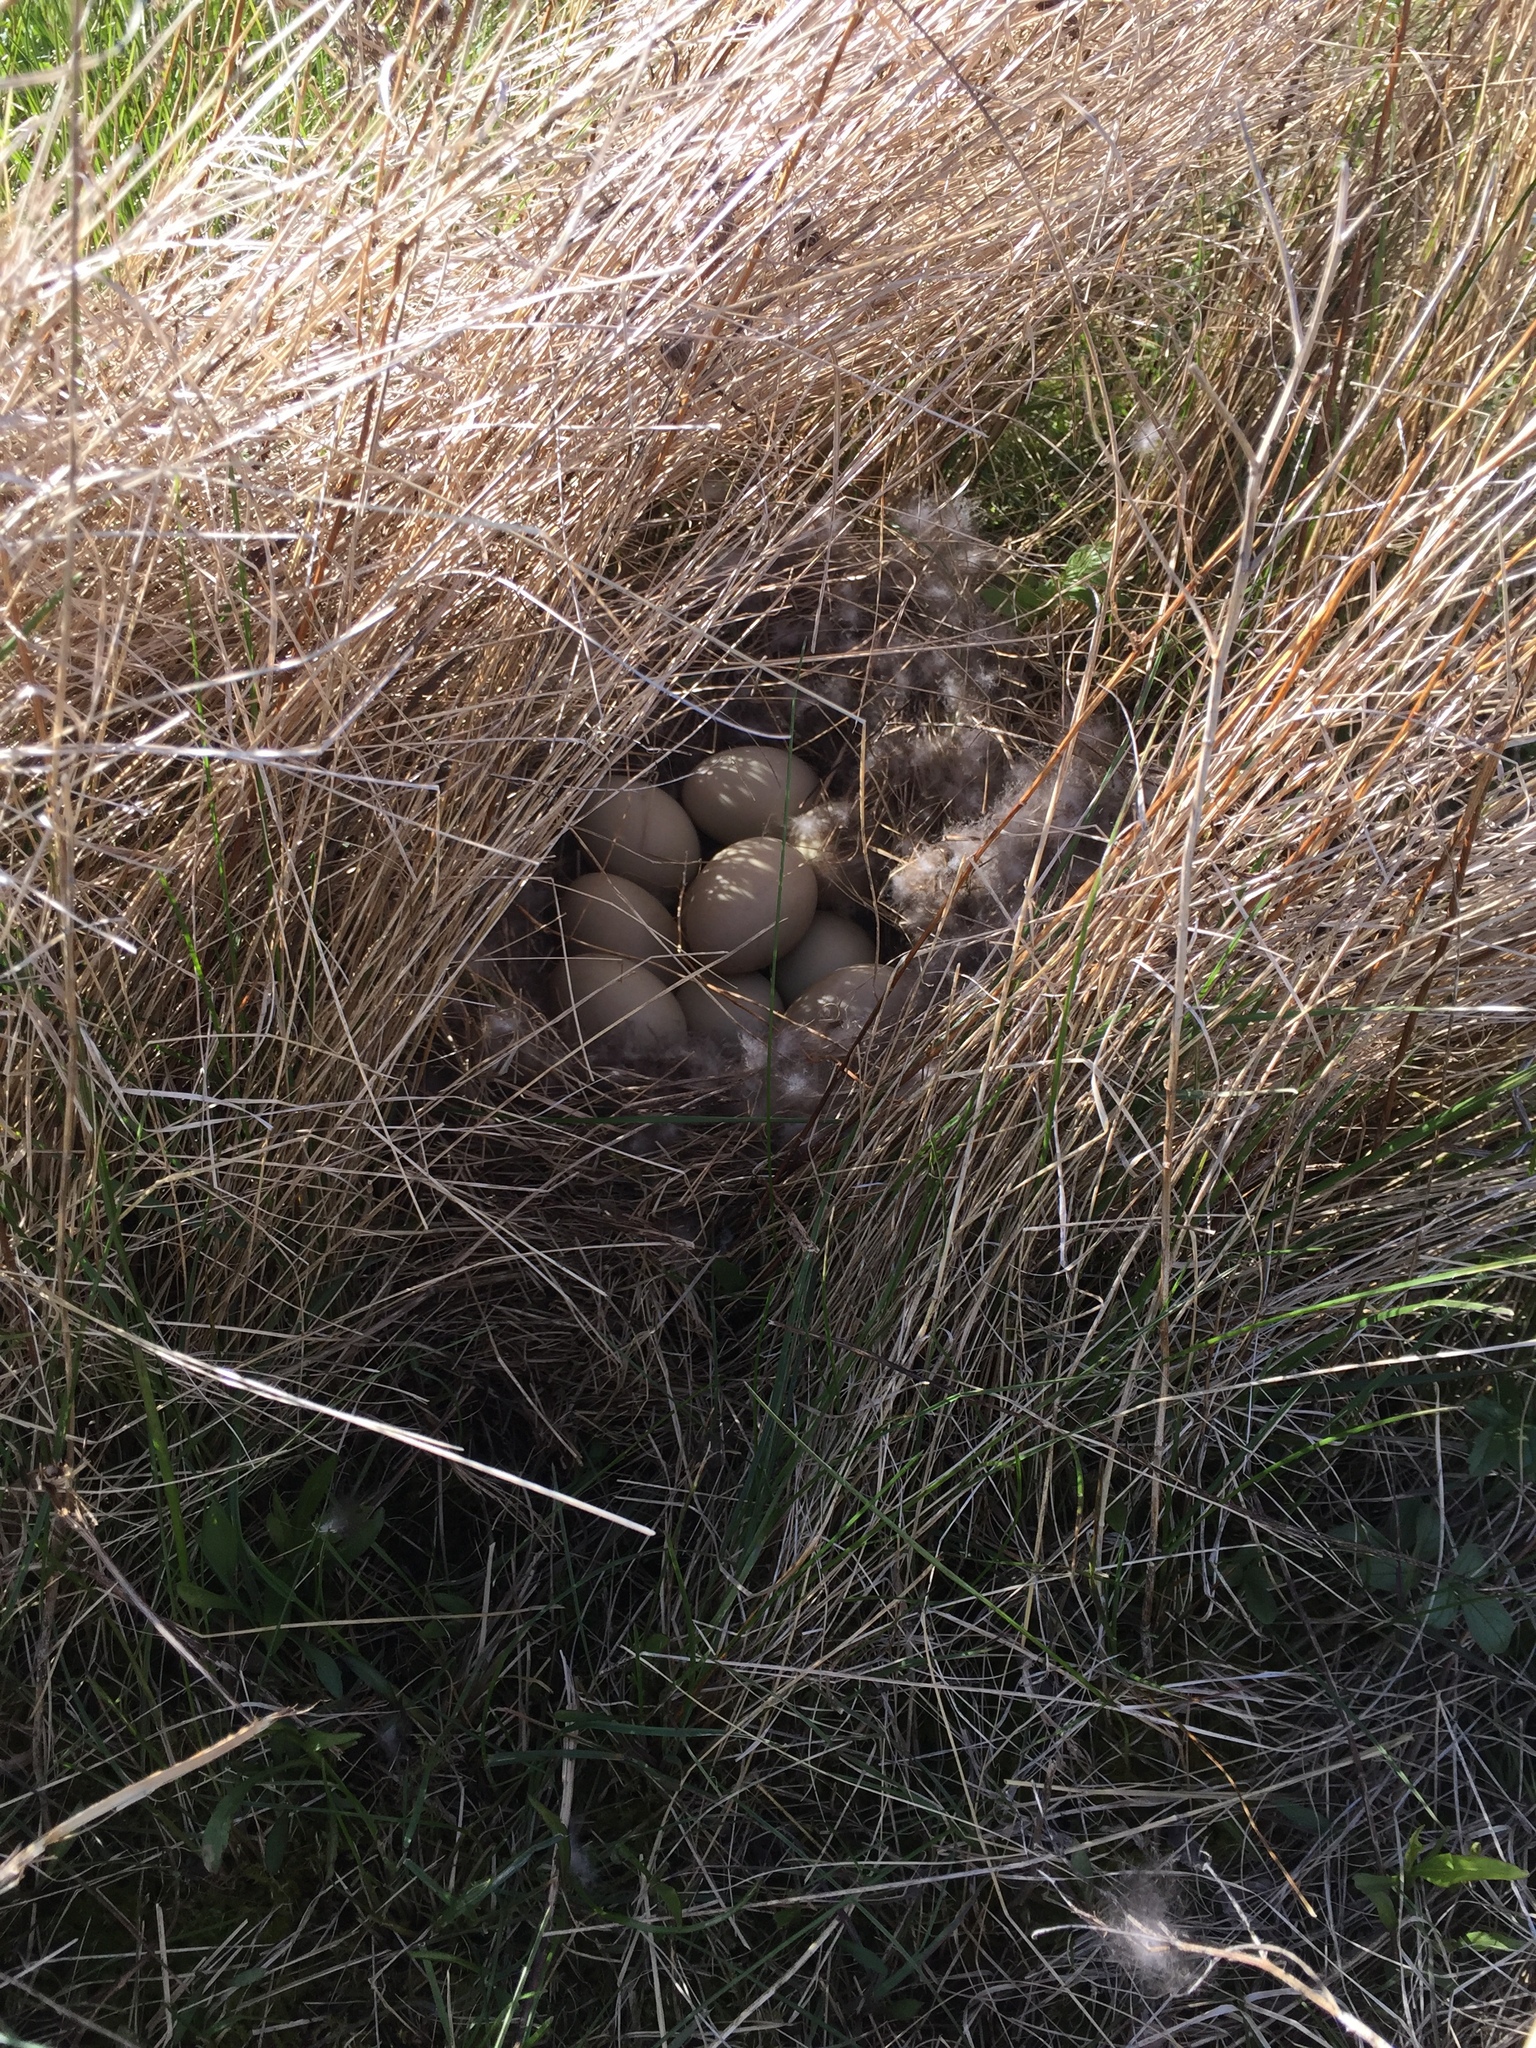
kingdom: Animalia
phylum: Chordata
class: Aves
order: Anseriformes
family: Anatidae
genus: Anas
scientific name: Anas platyrhynchos
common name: Mallard
